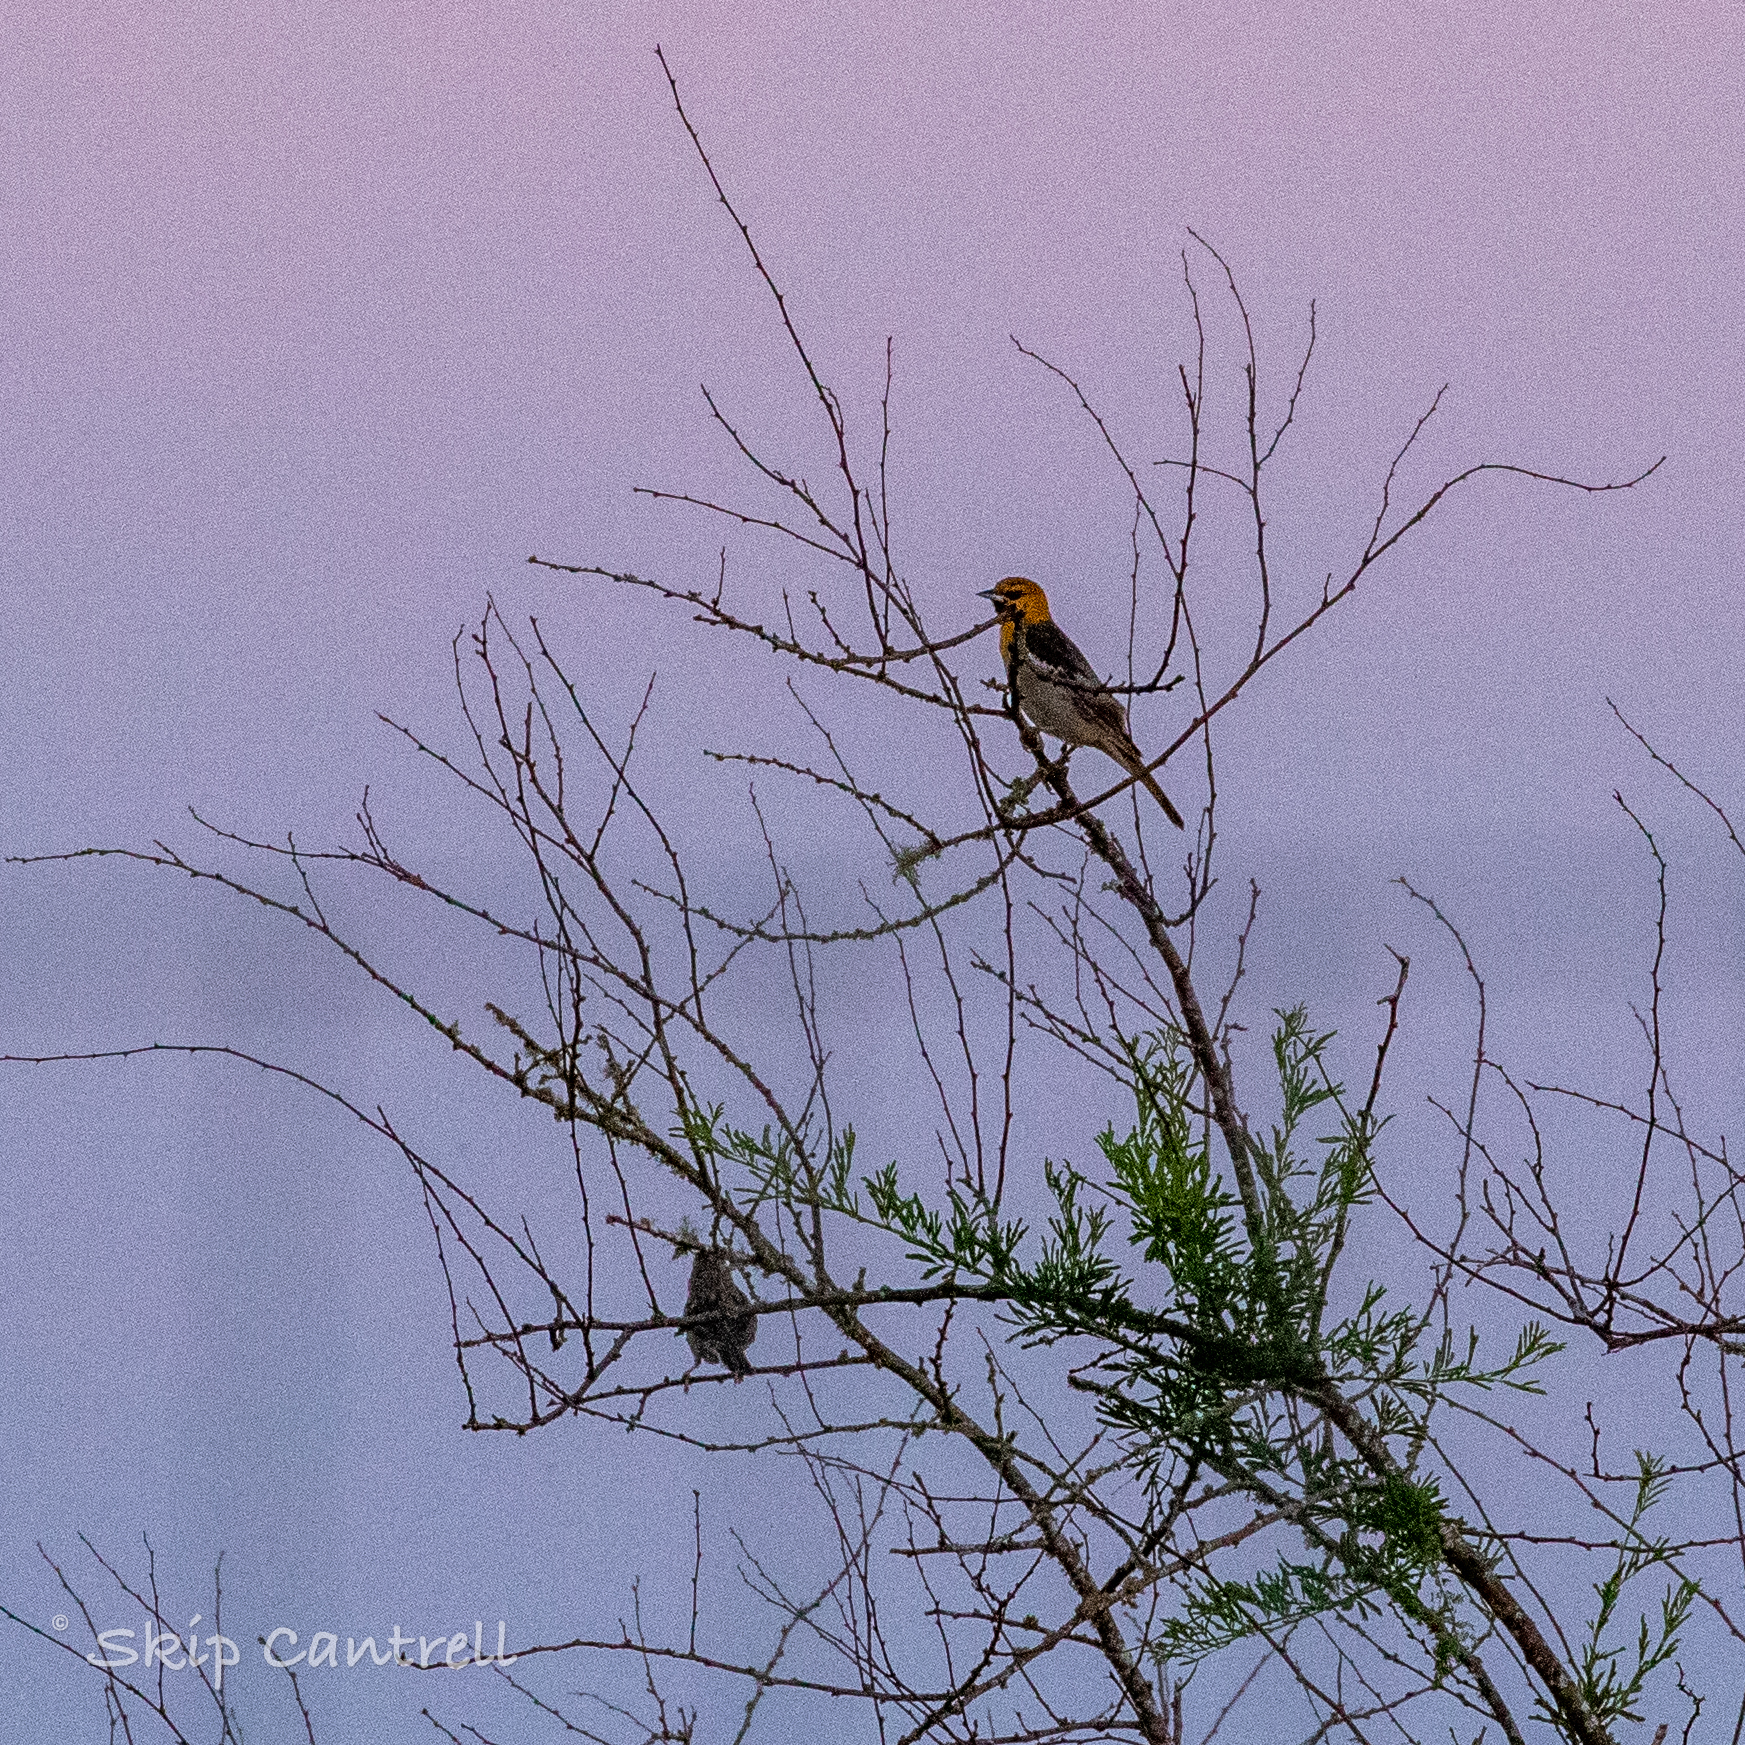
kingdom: Animalia
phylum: Chordata
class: Aves
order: Passeriformes
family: Icteridae
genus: Icterus
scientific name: Icterus bullockii
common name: Bullock's oriole
